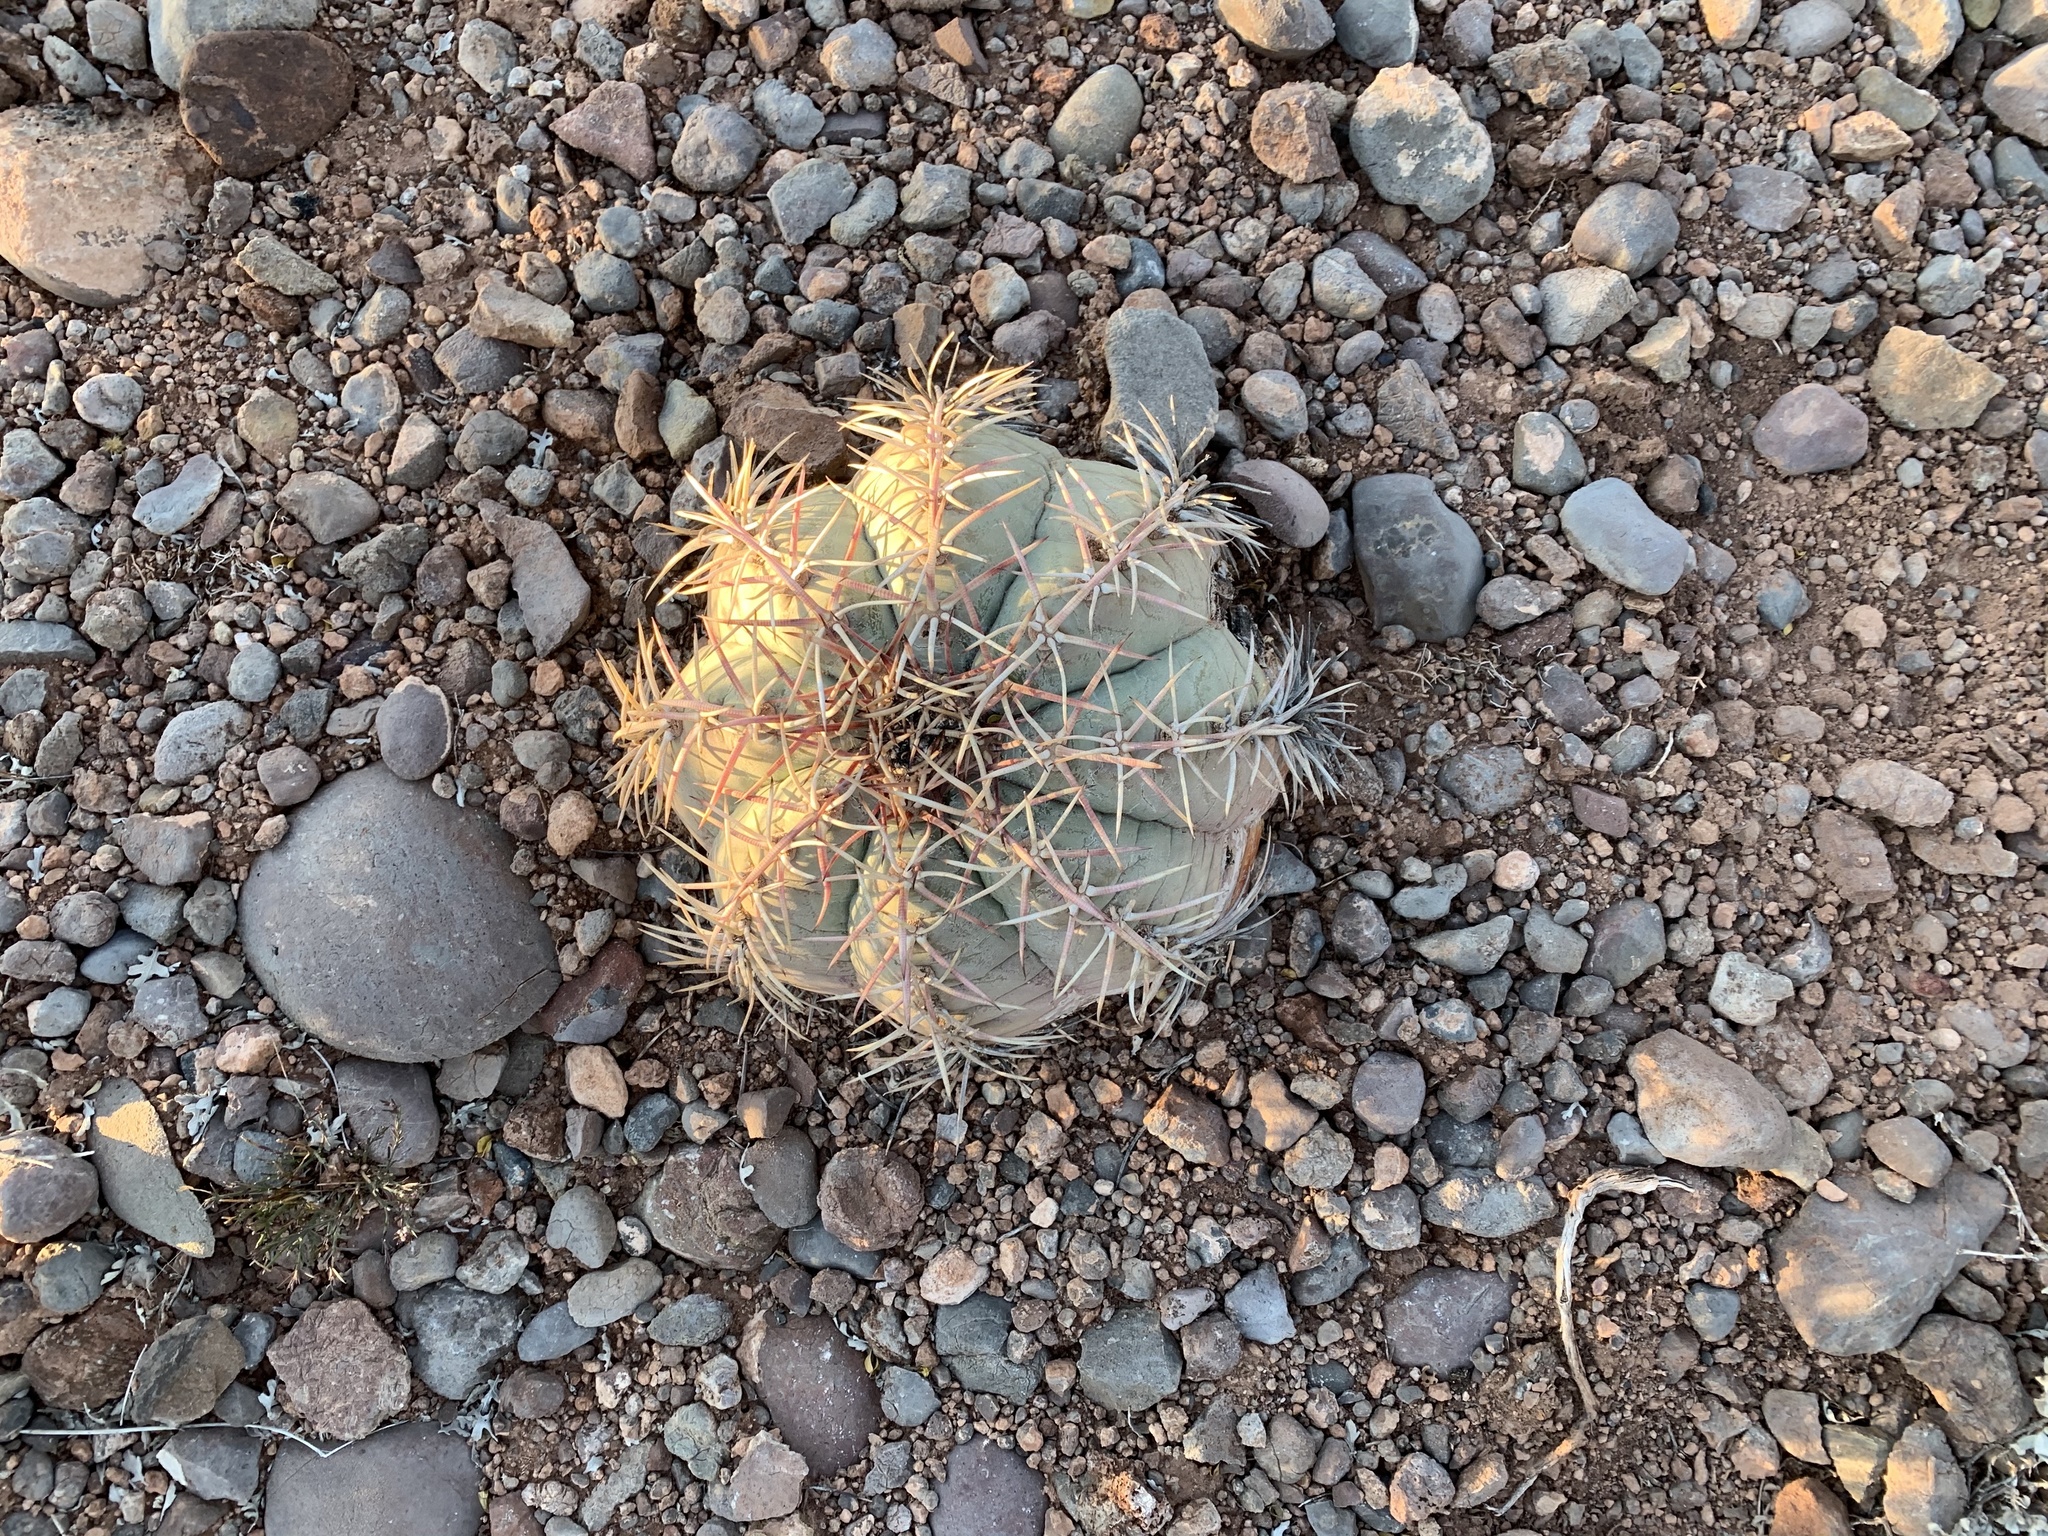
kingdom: Plantae
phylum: Tracheophyta
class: Magnoliopsida
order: Caryophyllales
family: Cactaceae
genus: Echinocactus
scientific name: Echinocactus horizonthalonius
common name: Devilshead
